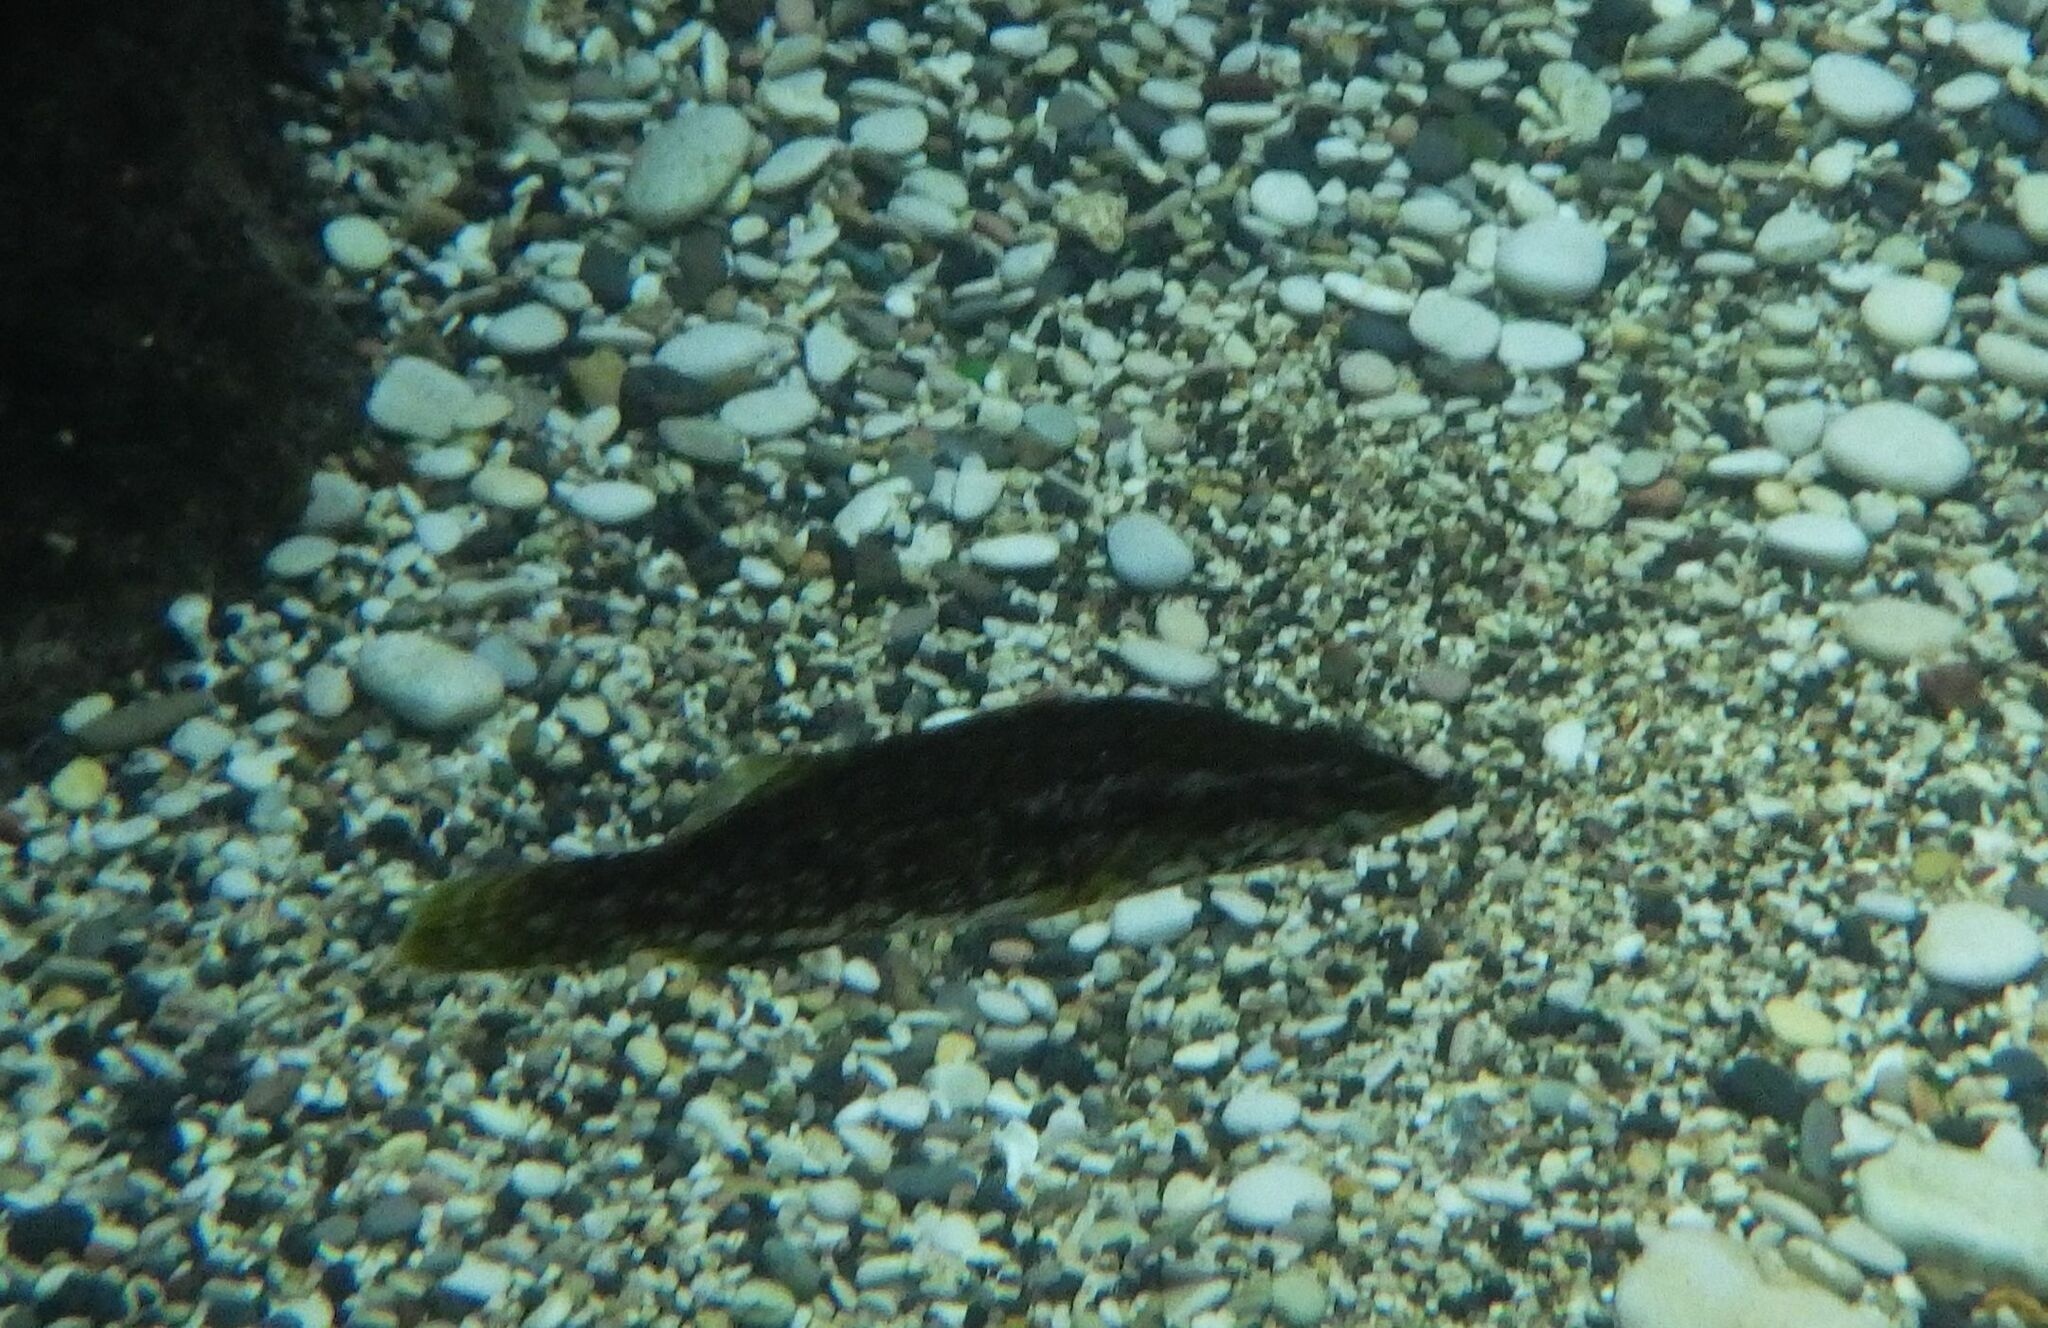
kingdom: Animalia
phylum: Chordata
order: Perciformes
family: Labridae
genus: Labrus
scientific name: Labrus viridis
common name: Green wrasse
